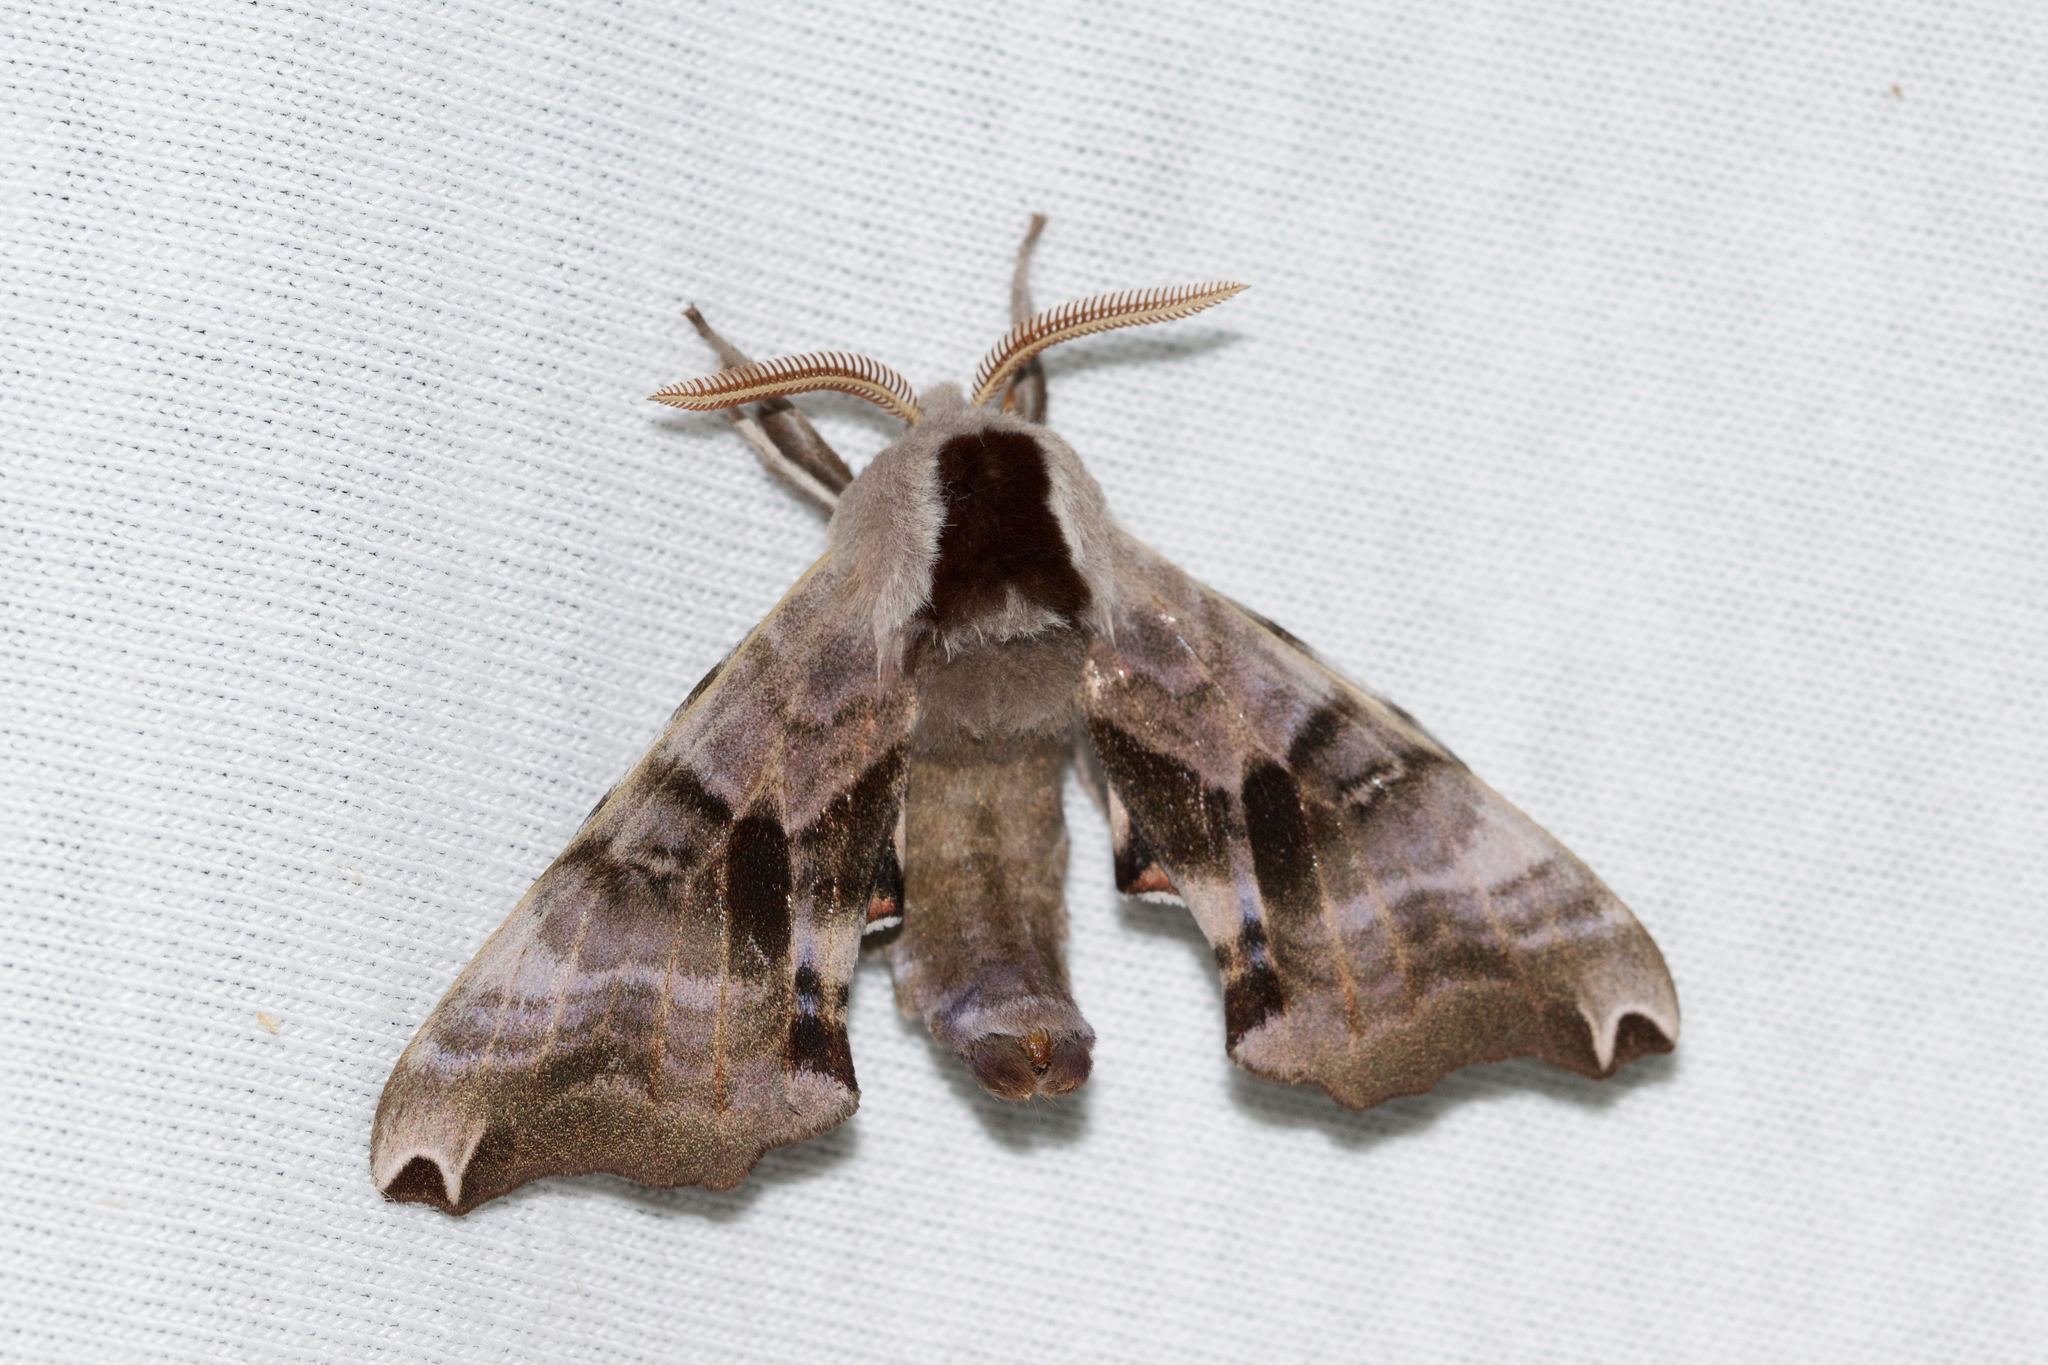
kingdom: Animalia
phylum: Arthropoda
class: Insecta
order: Lepidoptera
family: Sphingidae
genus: Smerinthus
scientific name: Smerinthus jamaicensis
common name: Twin spotted sphinx
